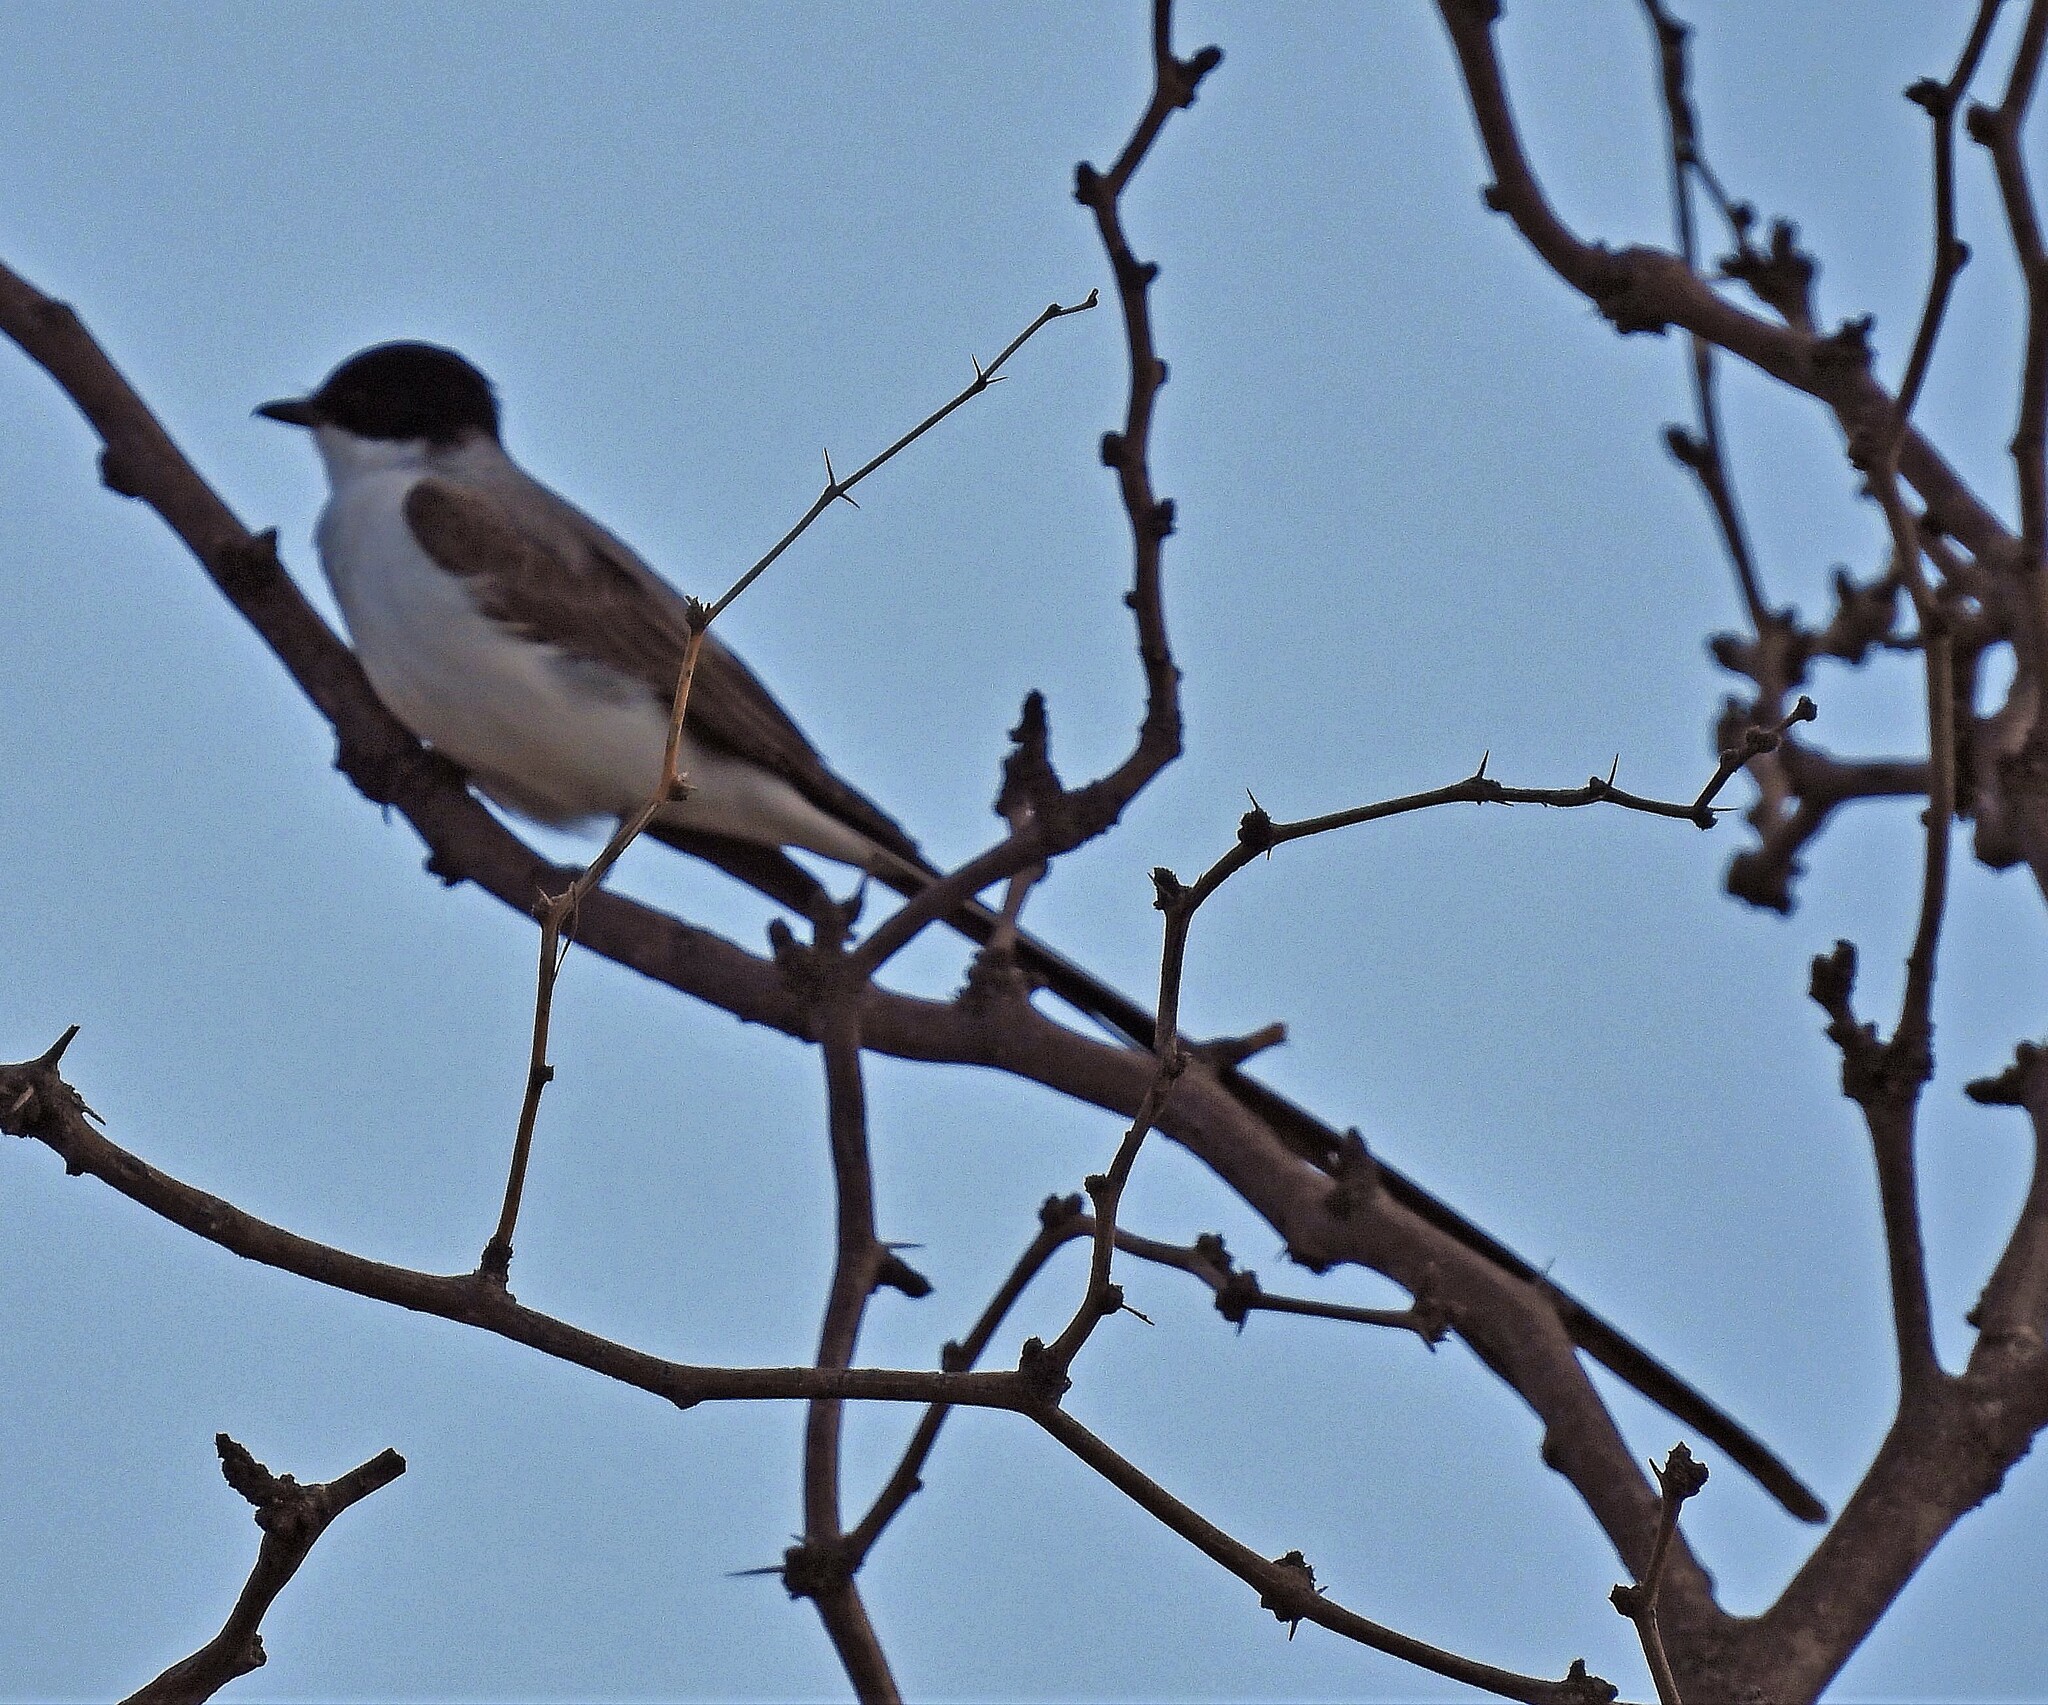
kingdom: Animalia
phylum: Chordata
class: Aves
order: Passeriformes
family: Tyrannidae
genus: Tyrannus
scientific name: Tyrannus savana
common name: Fork-tailed flycatcher
